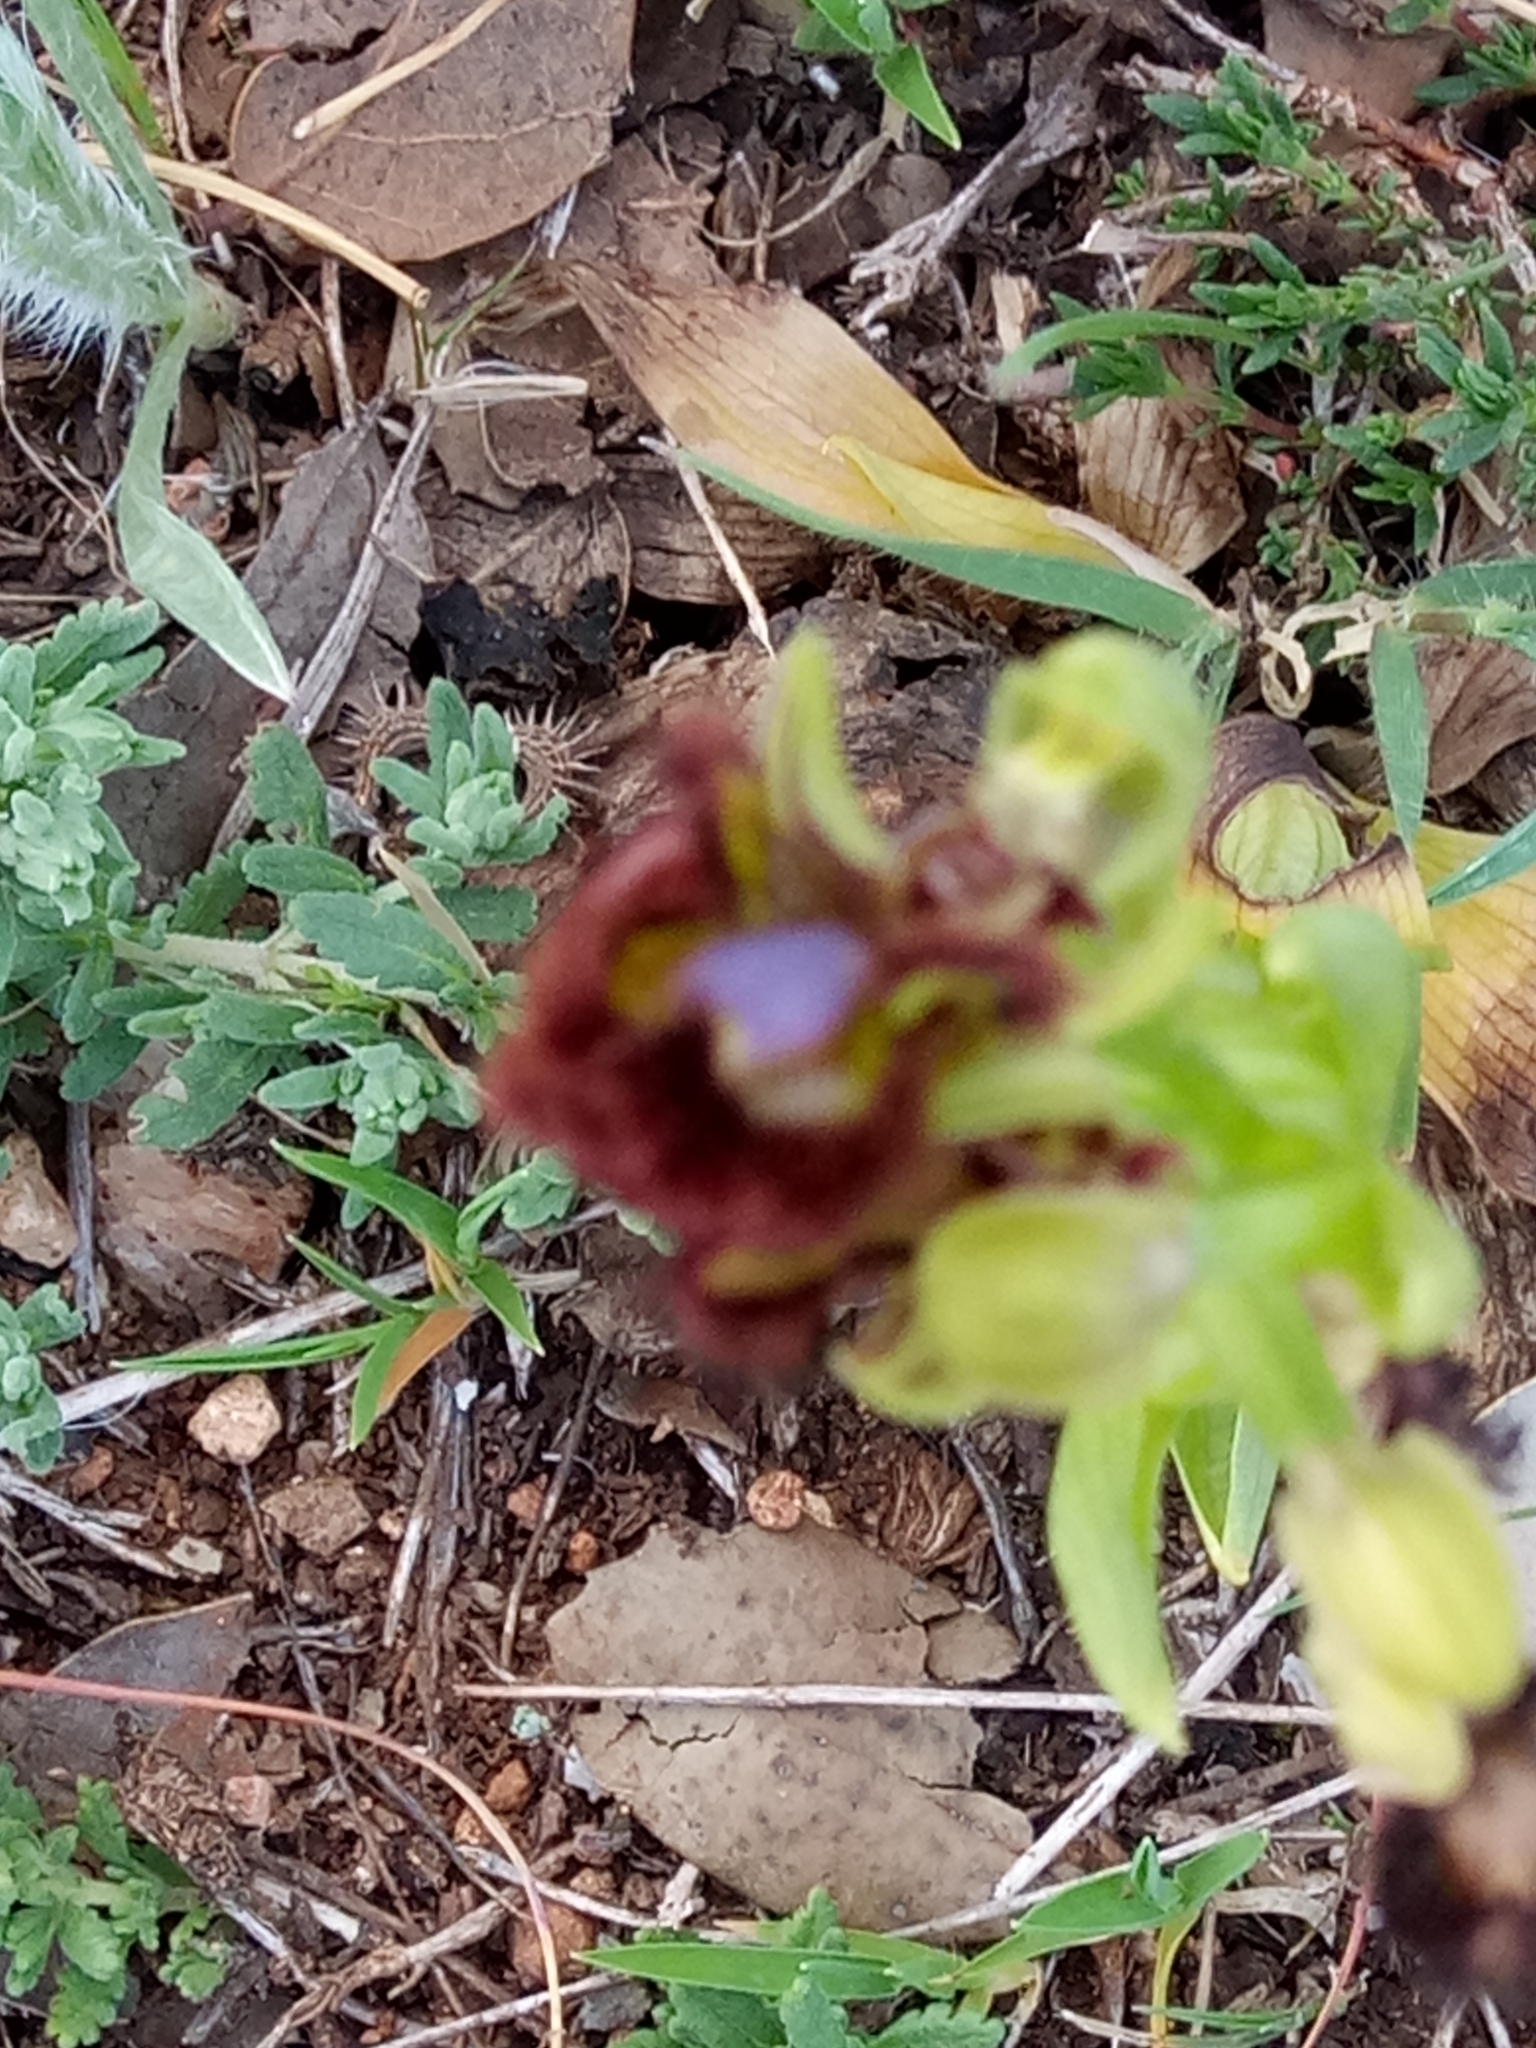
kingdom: Plantae
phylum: Tracheophyta
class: Liliopsida
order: Asparagales
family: Orchidaceae
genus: Ophrys
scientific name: Ophrys speculum
